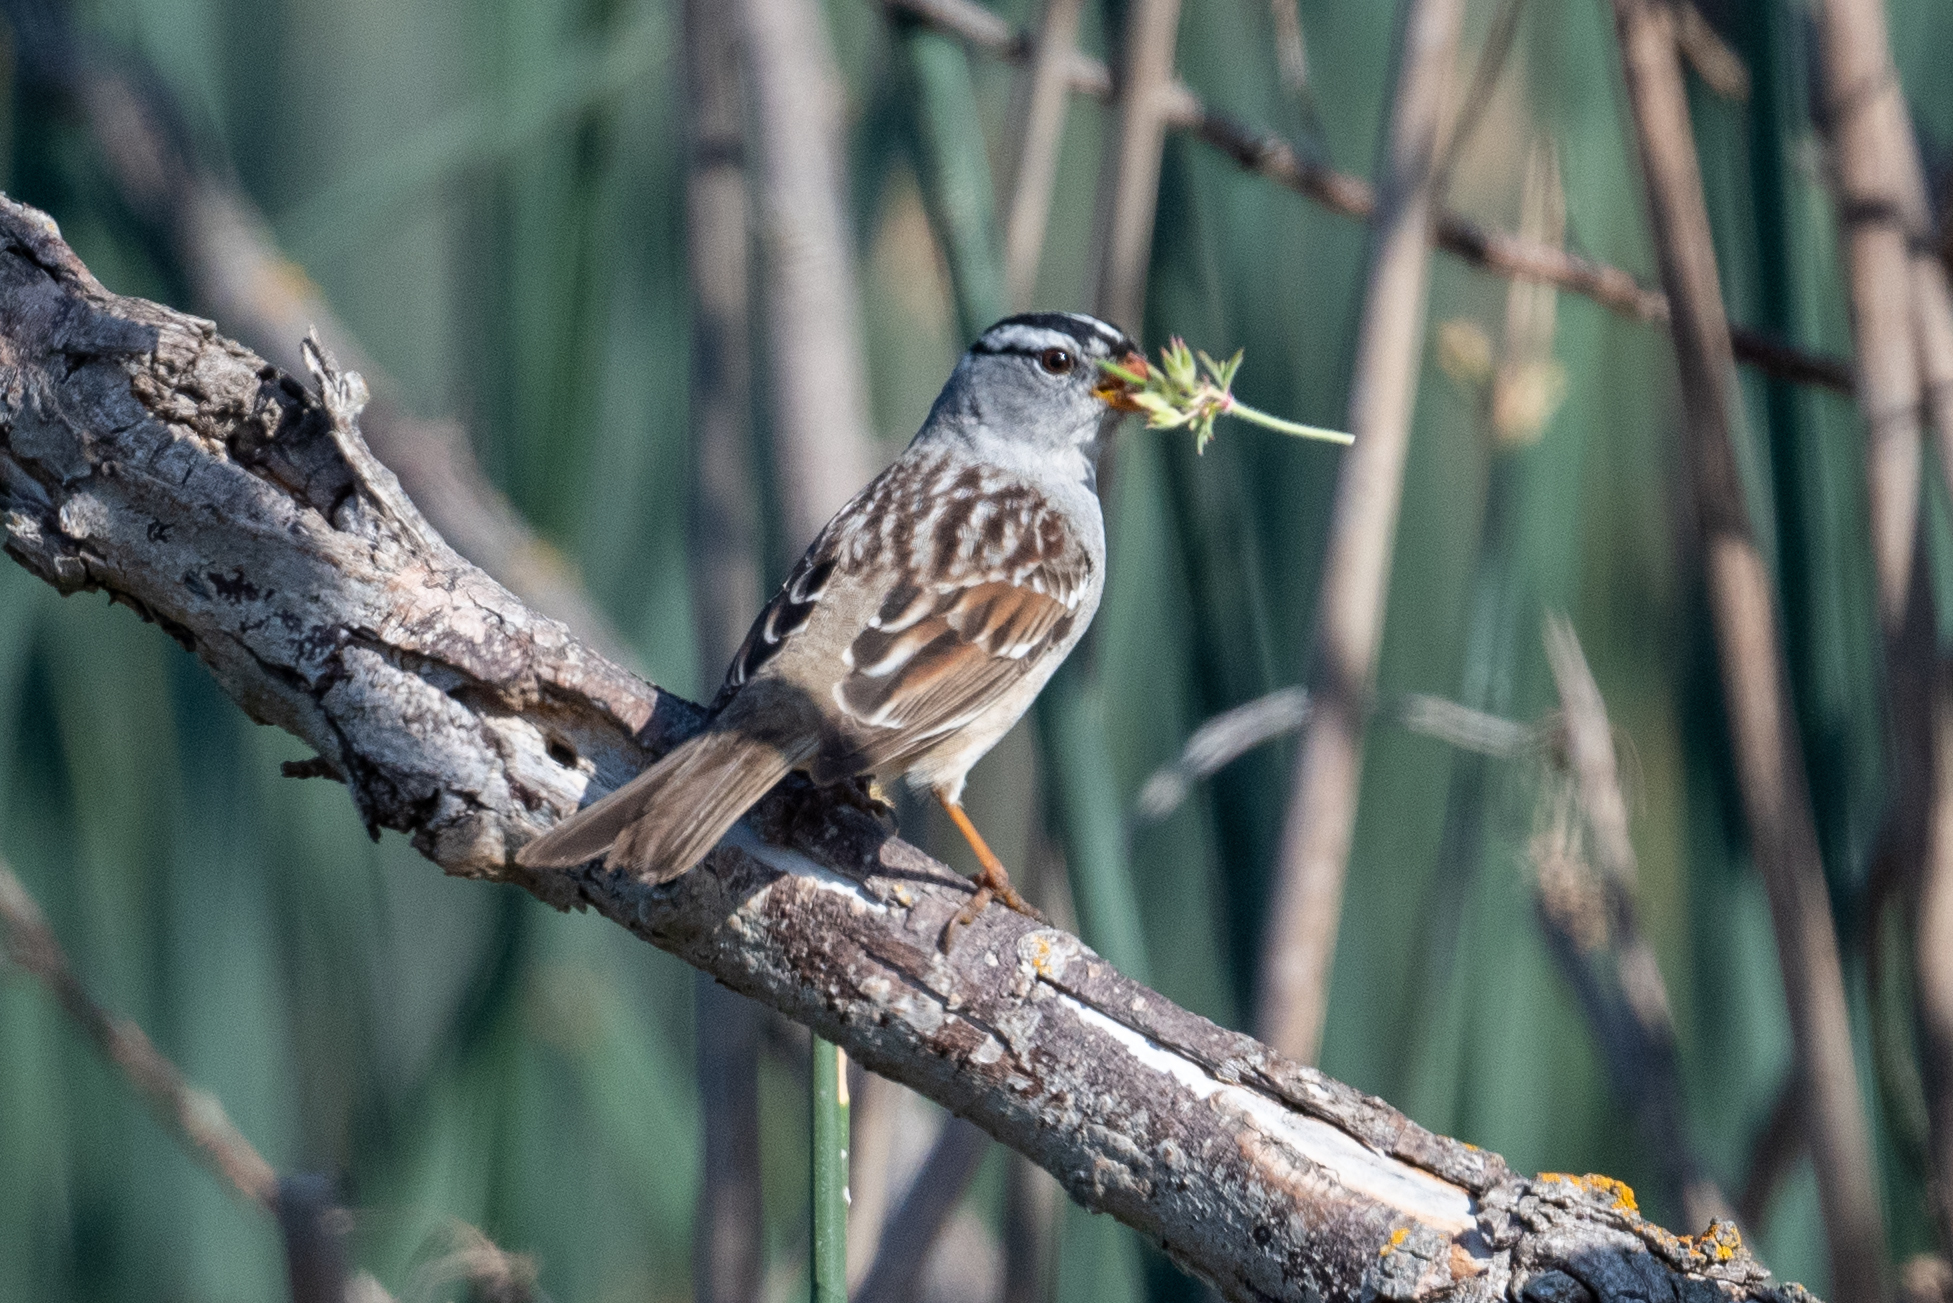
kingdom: Animalia
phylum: Chordata
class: Aves
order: Passeriformes
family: Passerellidae
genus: Zonotrichia
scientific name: Zonotrichia leucophrys
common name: White-crowned sparrow
